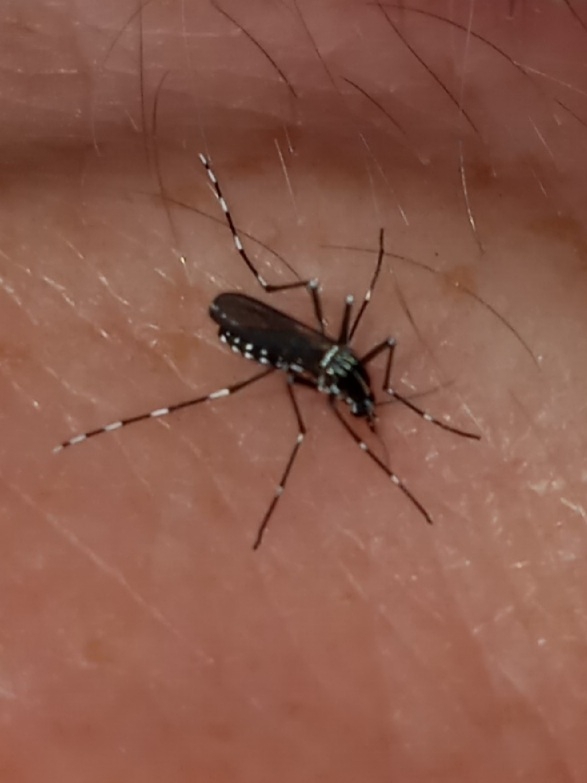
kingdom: Animalia
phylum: Arthropoda
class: Insecta
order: Diptera
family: Culicidae
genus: Aedes
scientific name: Aedes albopictus
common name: Tiger mosquito
